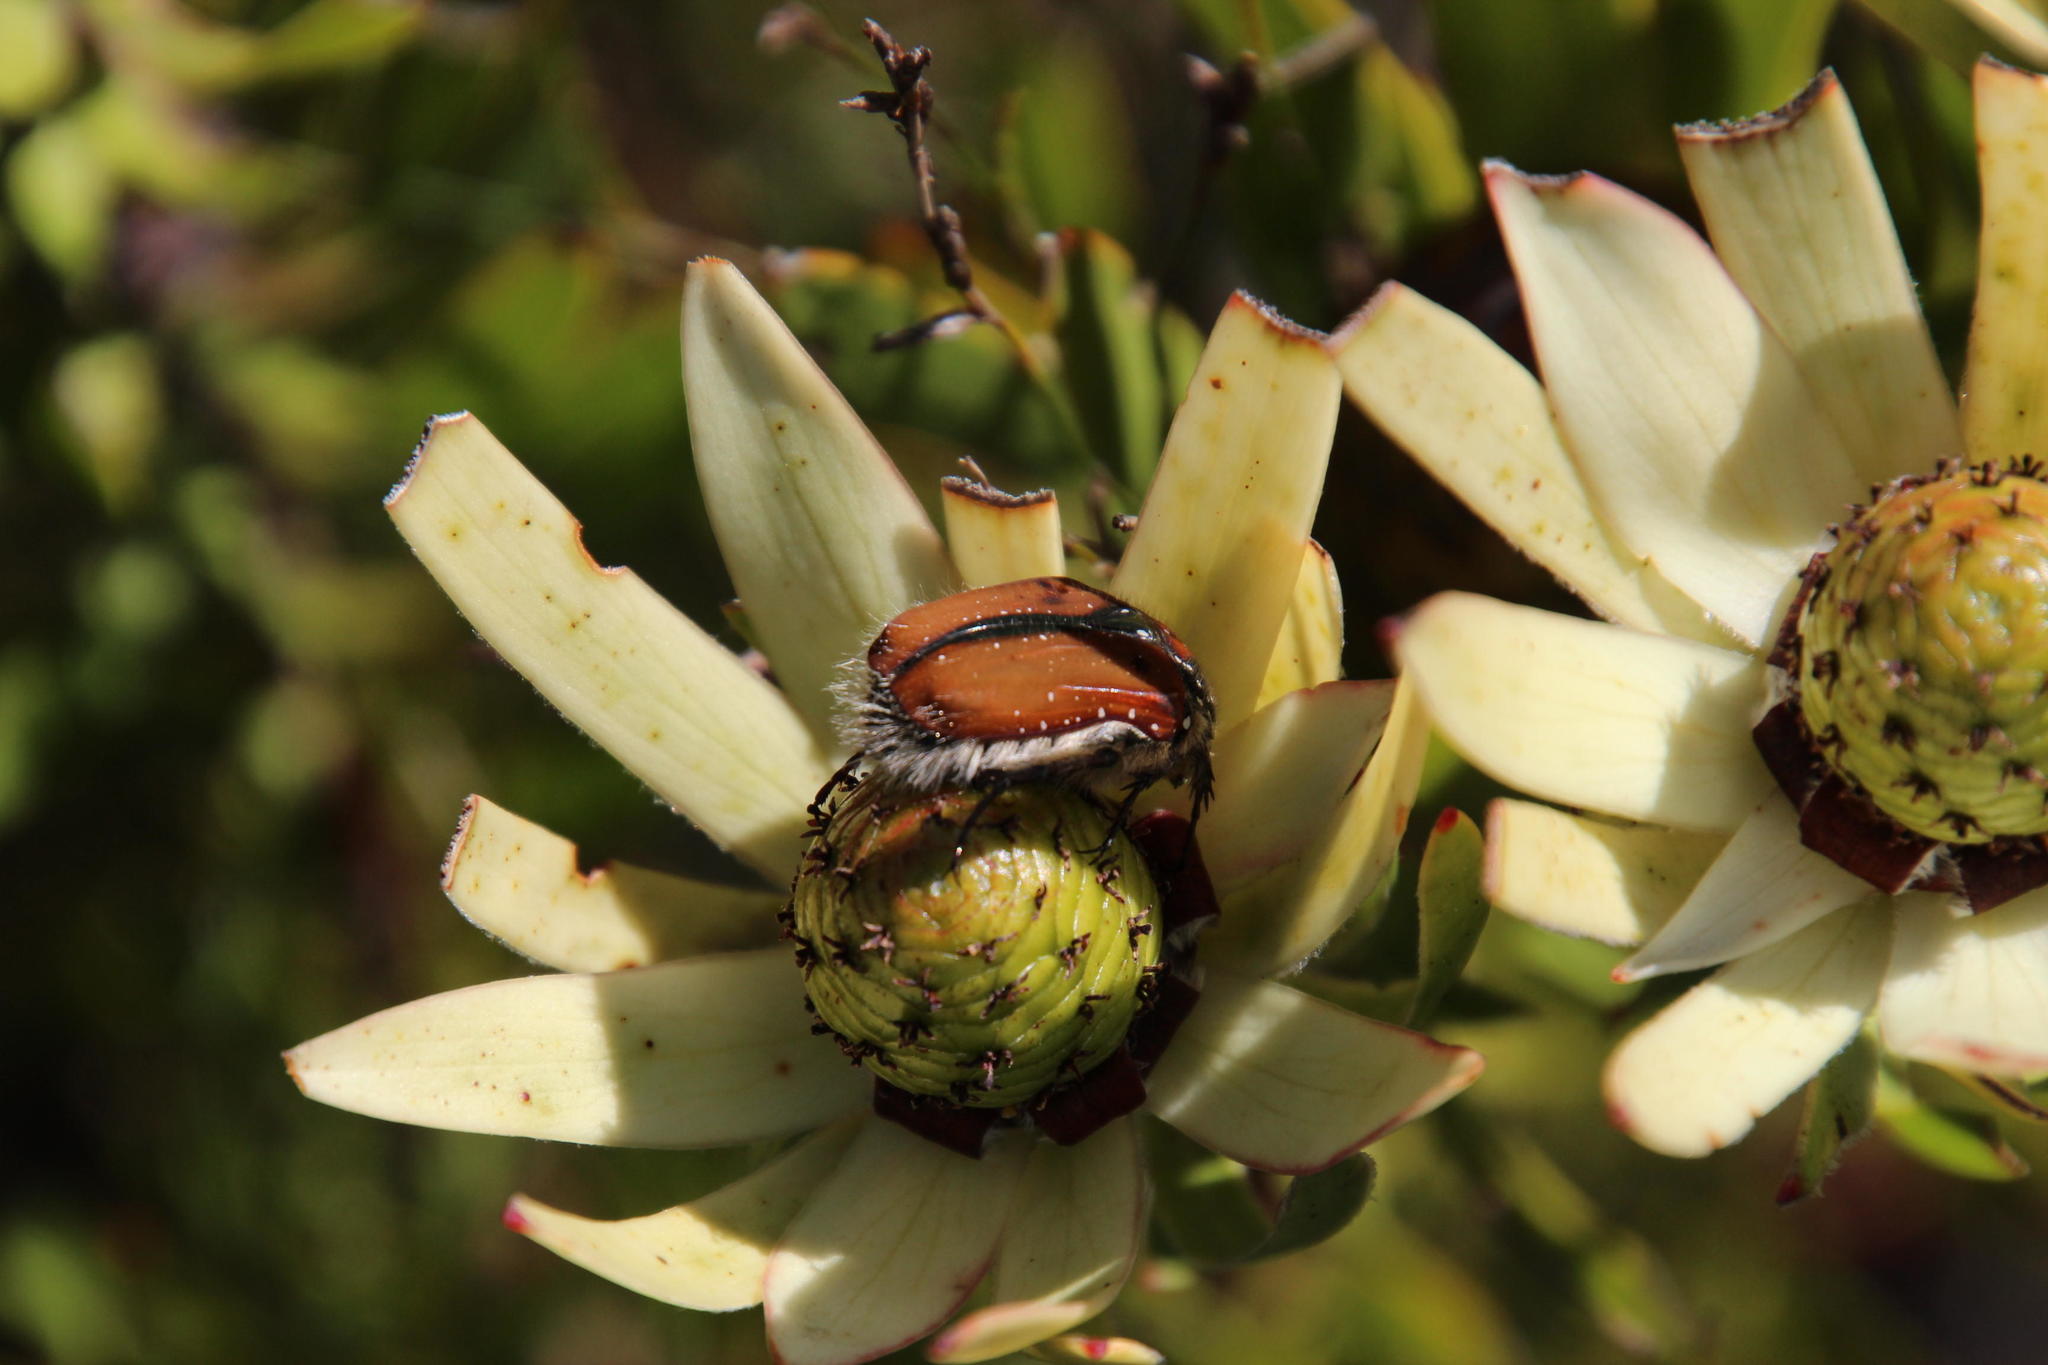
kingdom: Plantae
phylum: Tracheophyta
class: Magnoliopsida
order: Proteales
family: Proteaceae
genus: Leucadendron
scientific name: Leucadendron spissifolium
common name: Spear-leaf conebush
